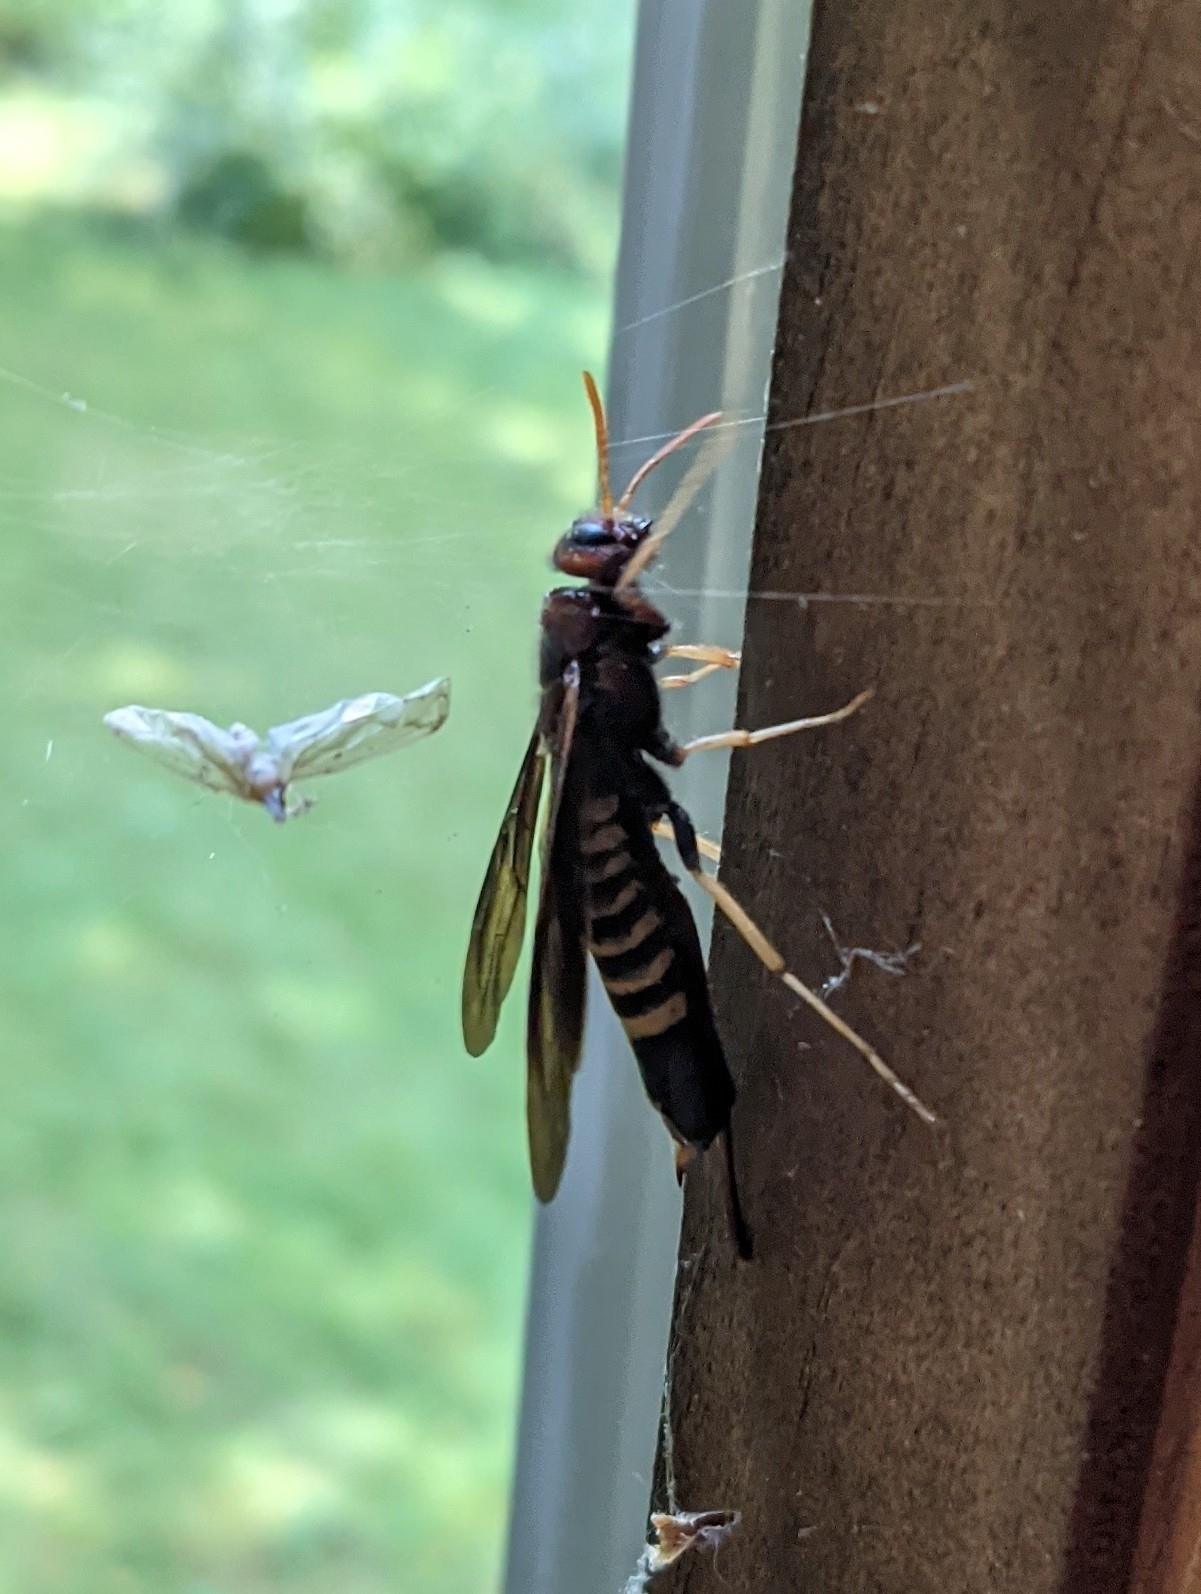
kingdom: Animalia
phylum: Arthropoda
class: Insecta
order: Hymenoptera
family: Siricidae
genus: Tremex
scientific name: Tremex columba
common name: Wasp
